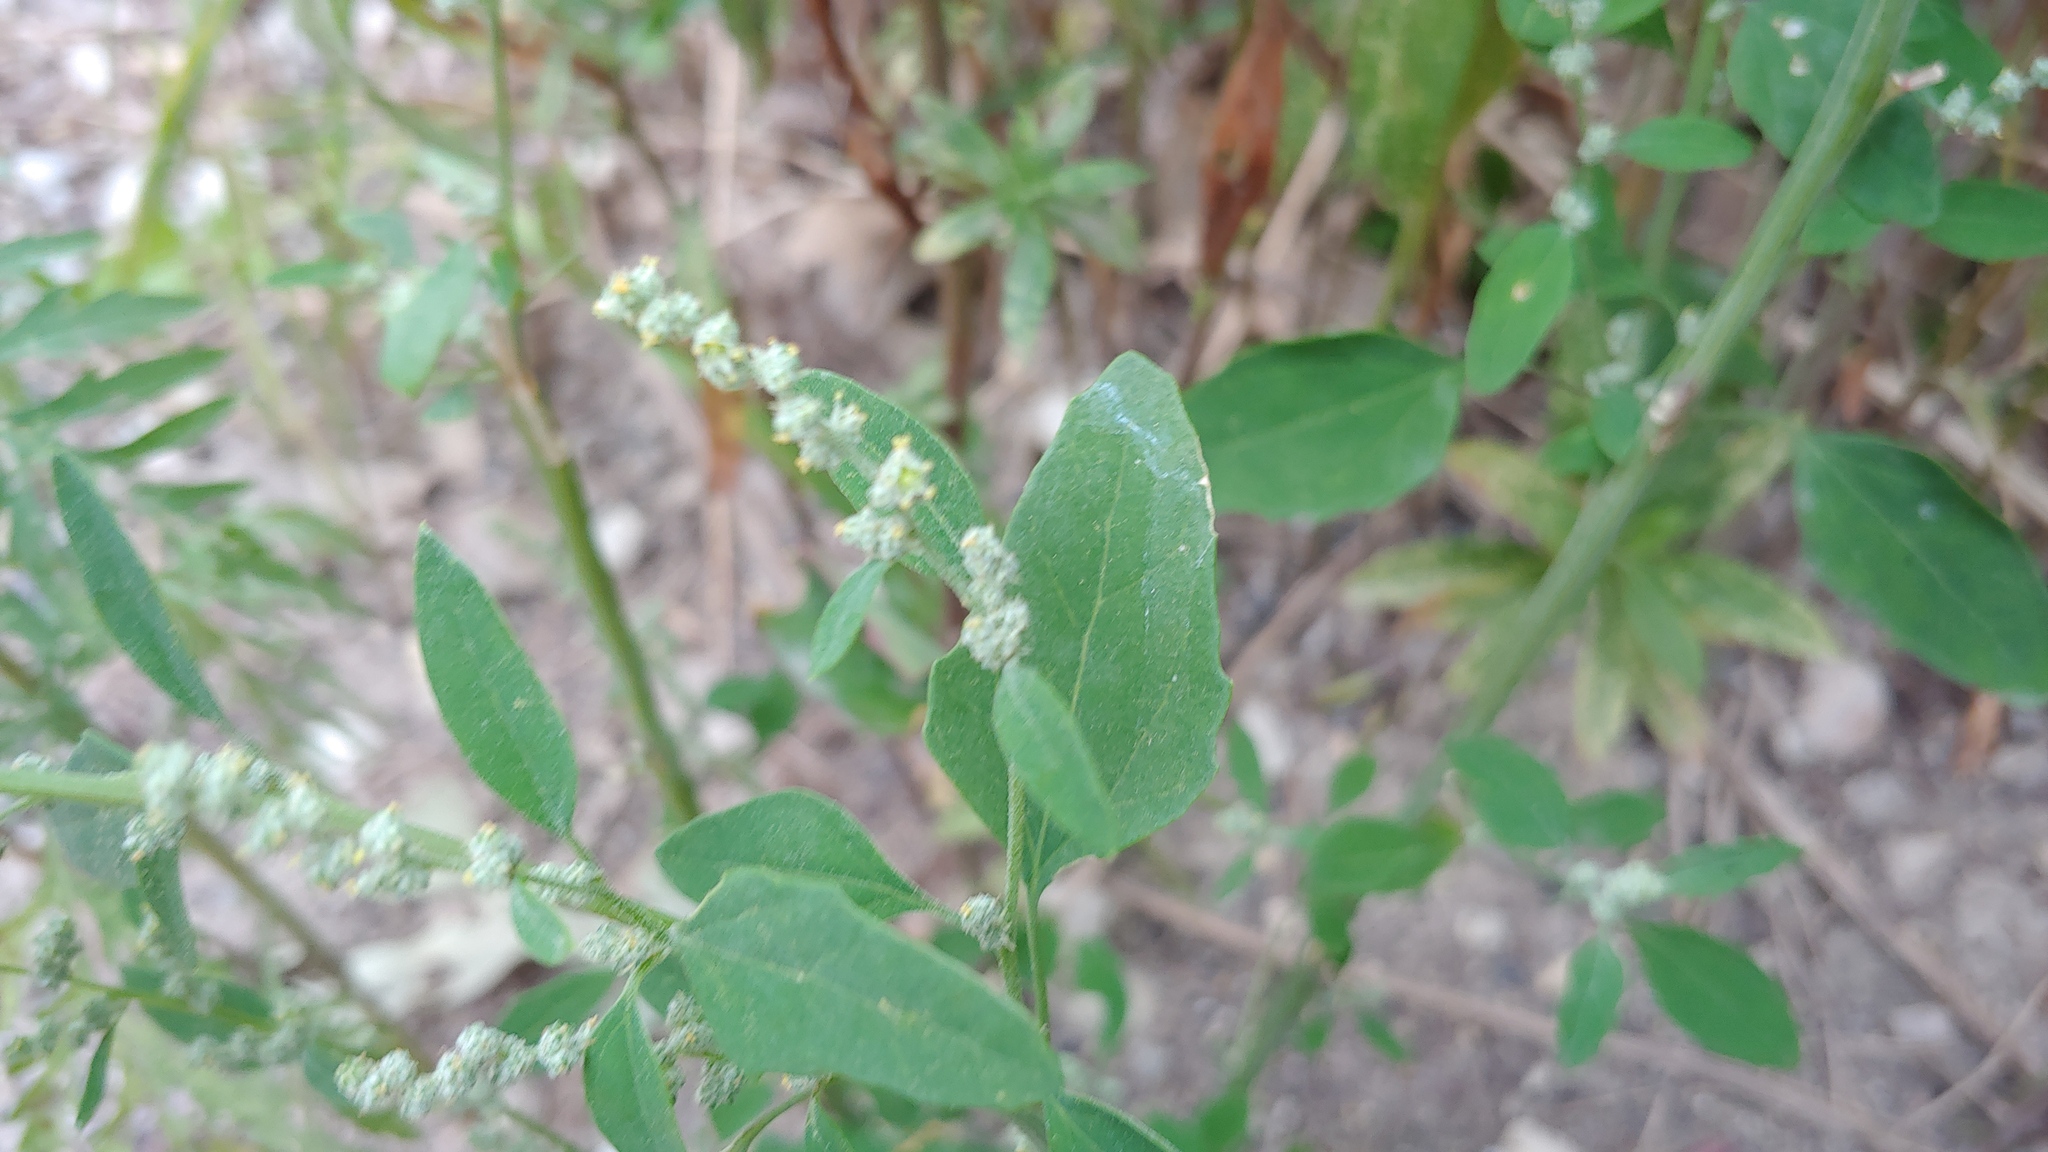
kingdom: Plantae
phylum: Tracheophyta
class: Magnoliopsida
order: Caryophyllales
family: Amaranthaceae
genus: Chenopodium
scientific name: Chenopodium album
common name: Fat-hen
